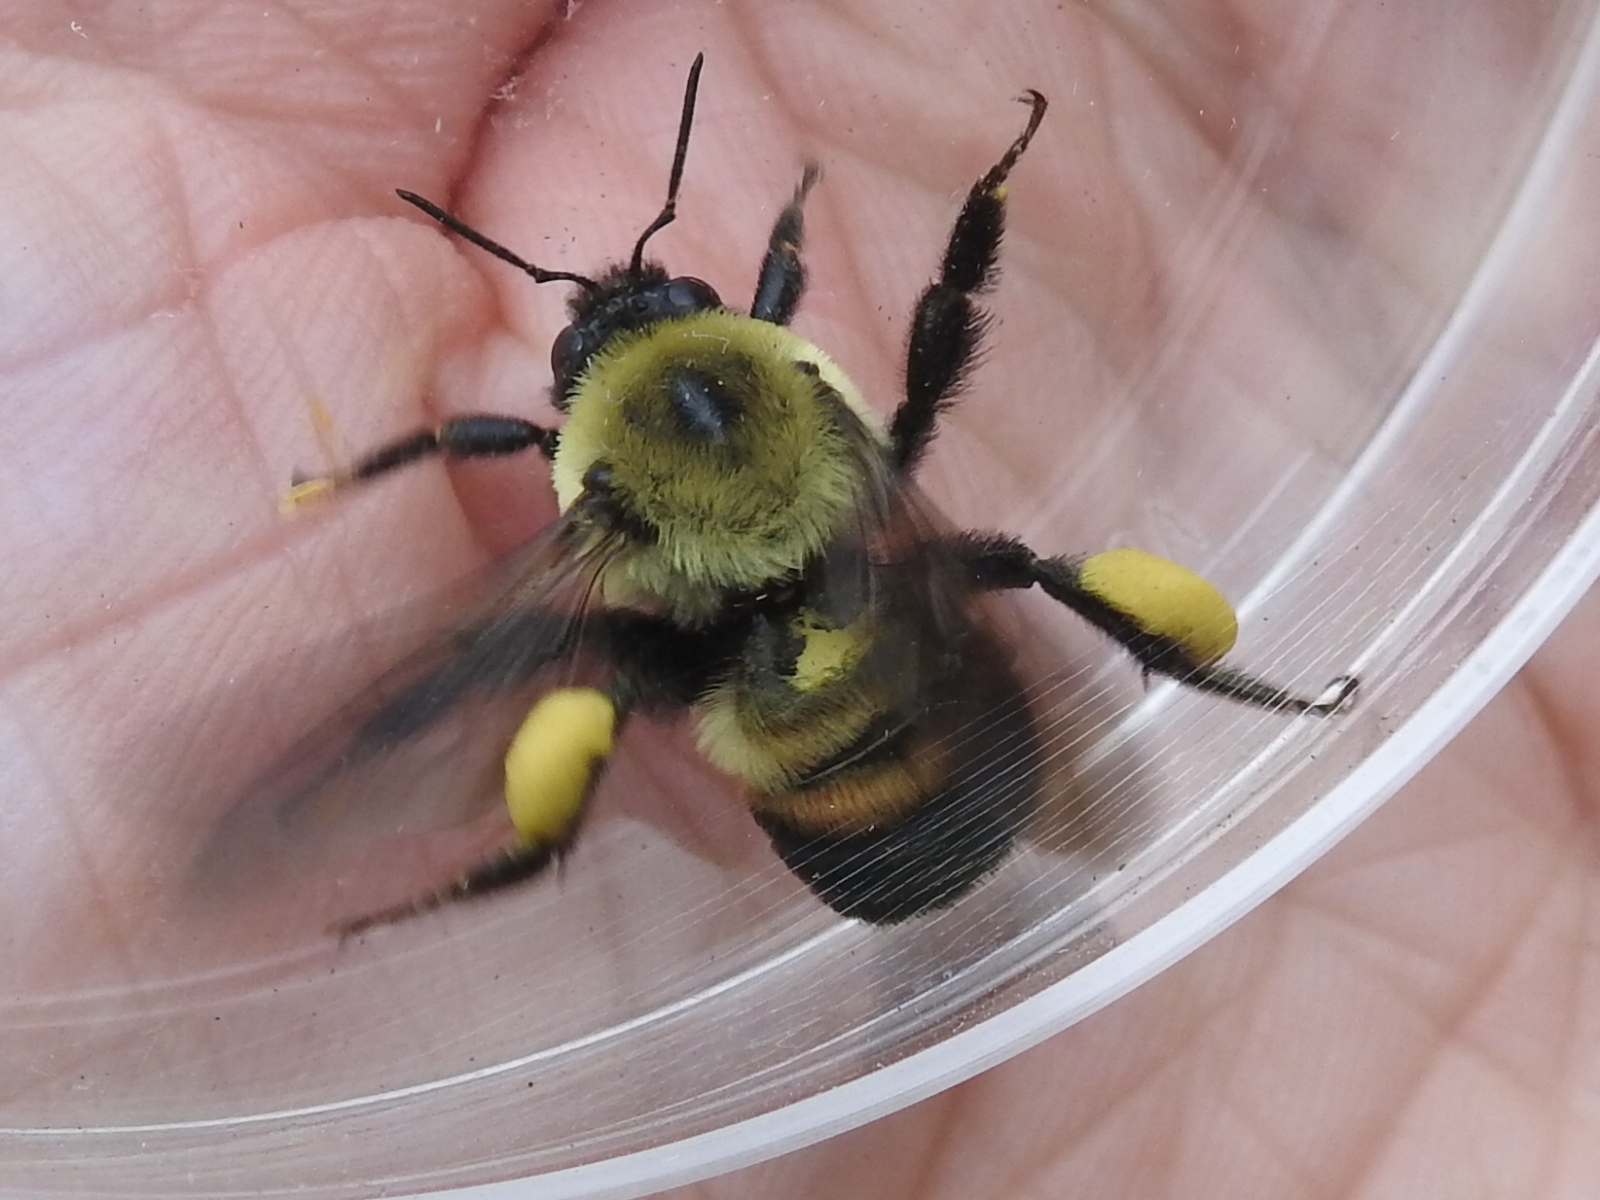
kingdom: Animalia
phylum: Arthropoda
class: Insecta
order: Hymenoptera
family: Apidae
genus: Bombus
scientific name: Bombus griseocollis
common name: Brown-belted bumble bee
